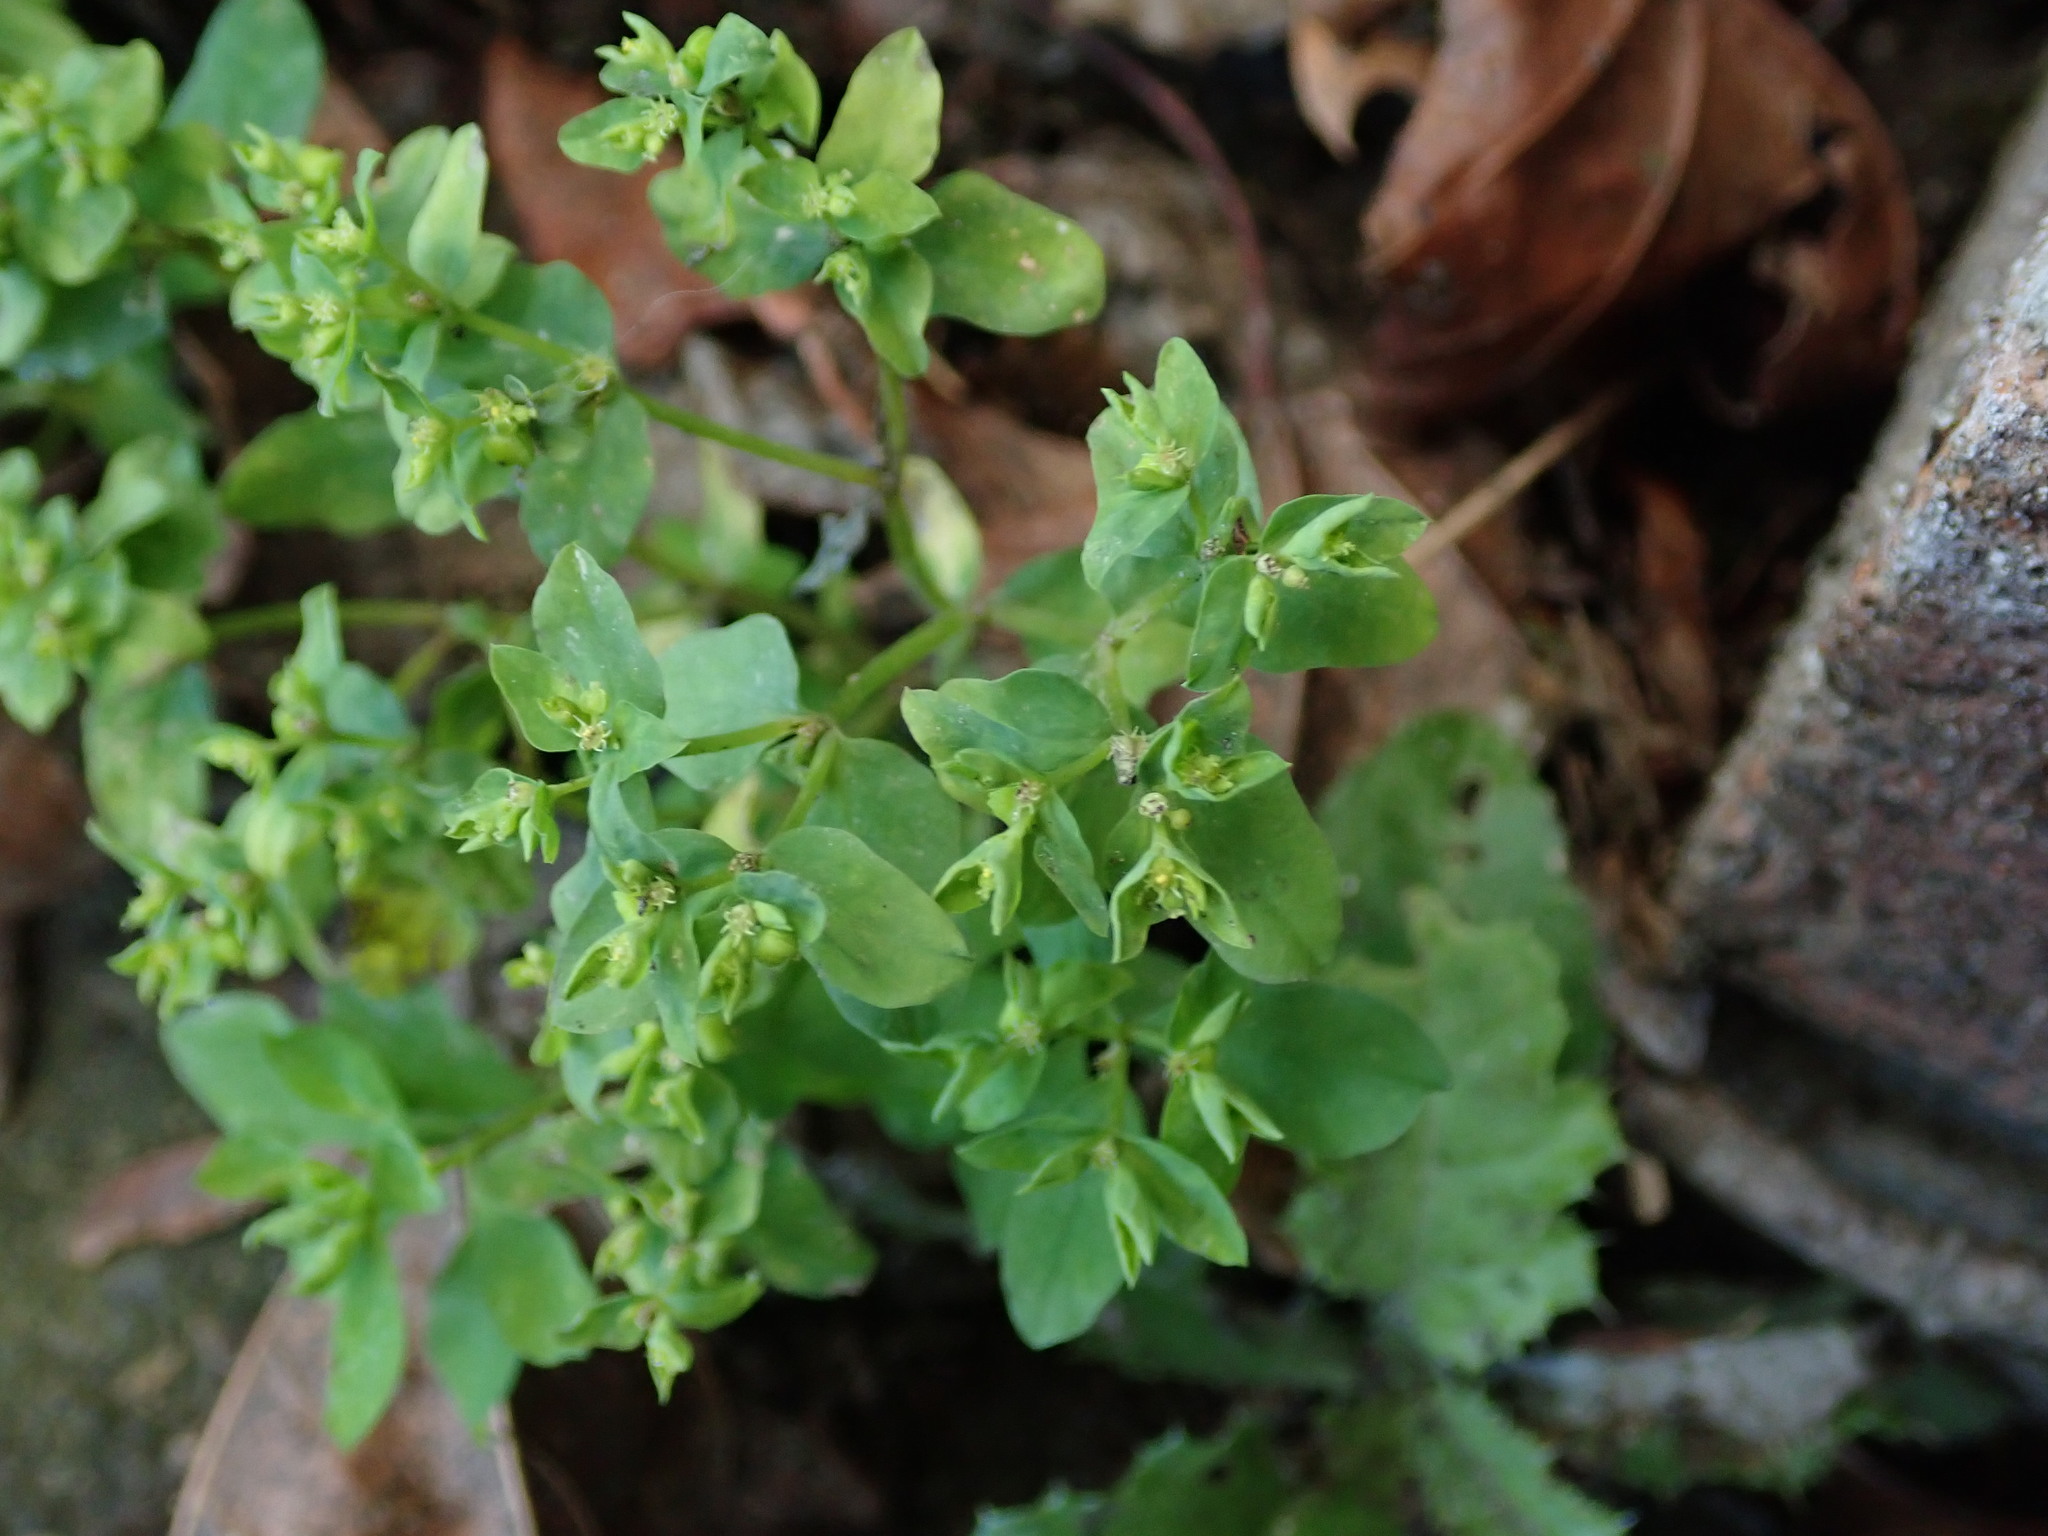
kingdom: Plantae
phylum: Tracheophyta
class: Magnoliopsida
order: Malpighiales
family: Euphorbiaceae
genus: Euphorbia
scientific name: Euphorbia peplus
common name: Petty spurge
